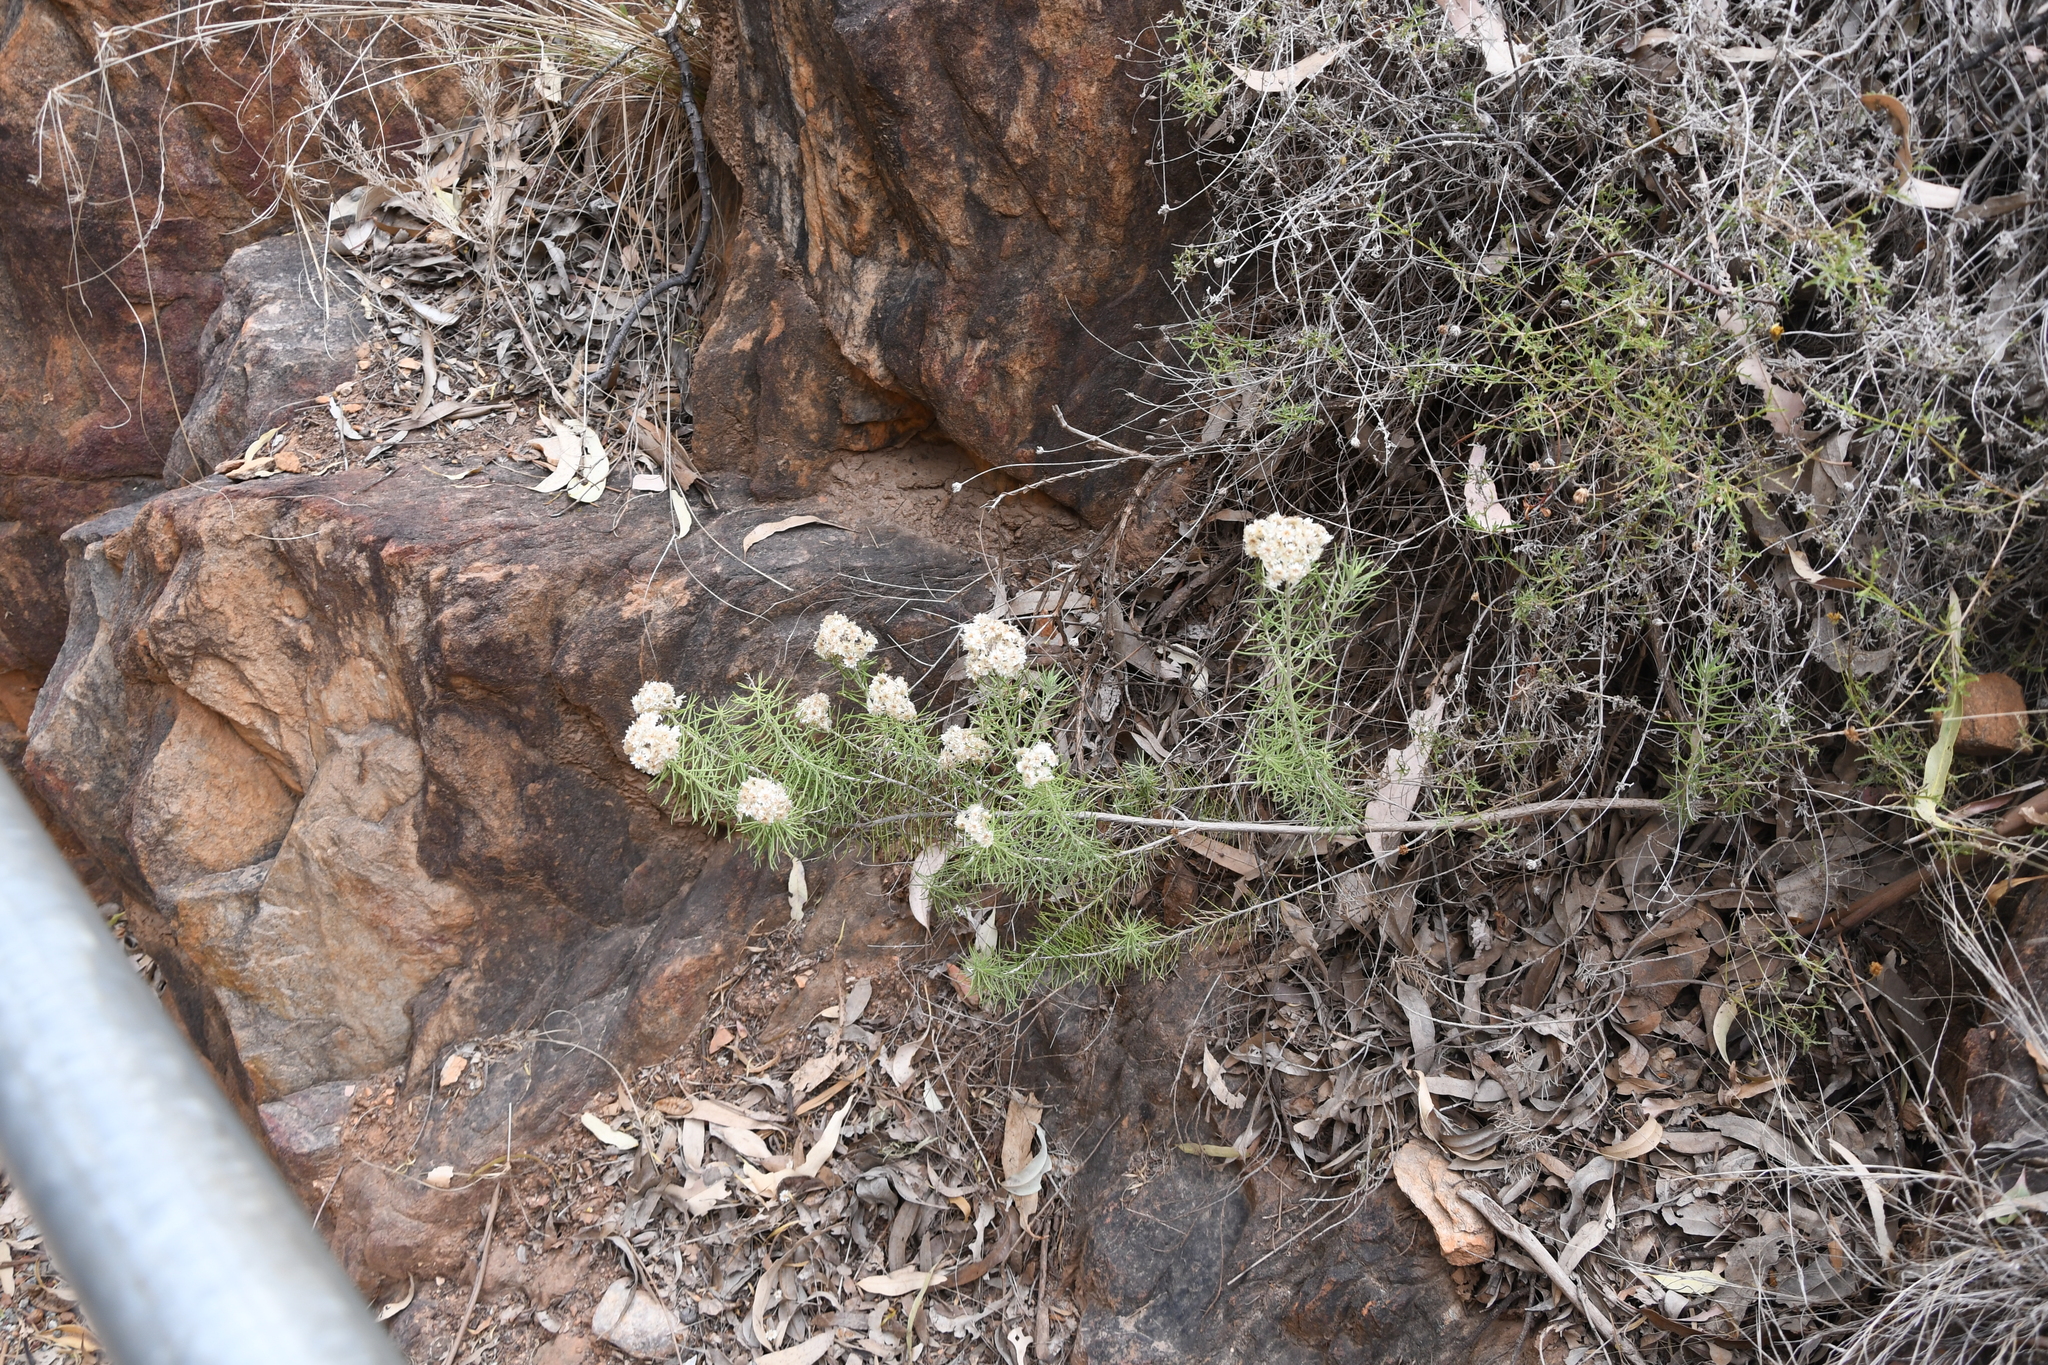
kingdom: Plantae
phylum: Tracheophyta
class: Magnoliopsida
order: Asterales
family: Asteraceae
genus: Cassinia
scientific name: Cassinia laevis
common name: Coughbush
